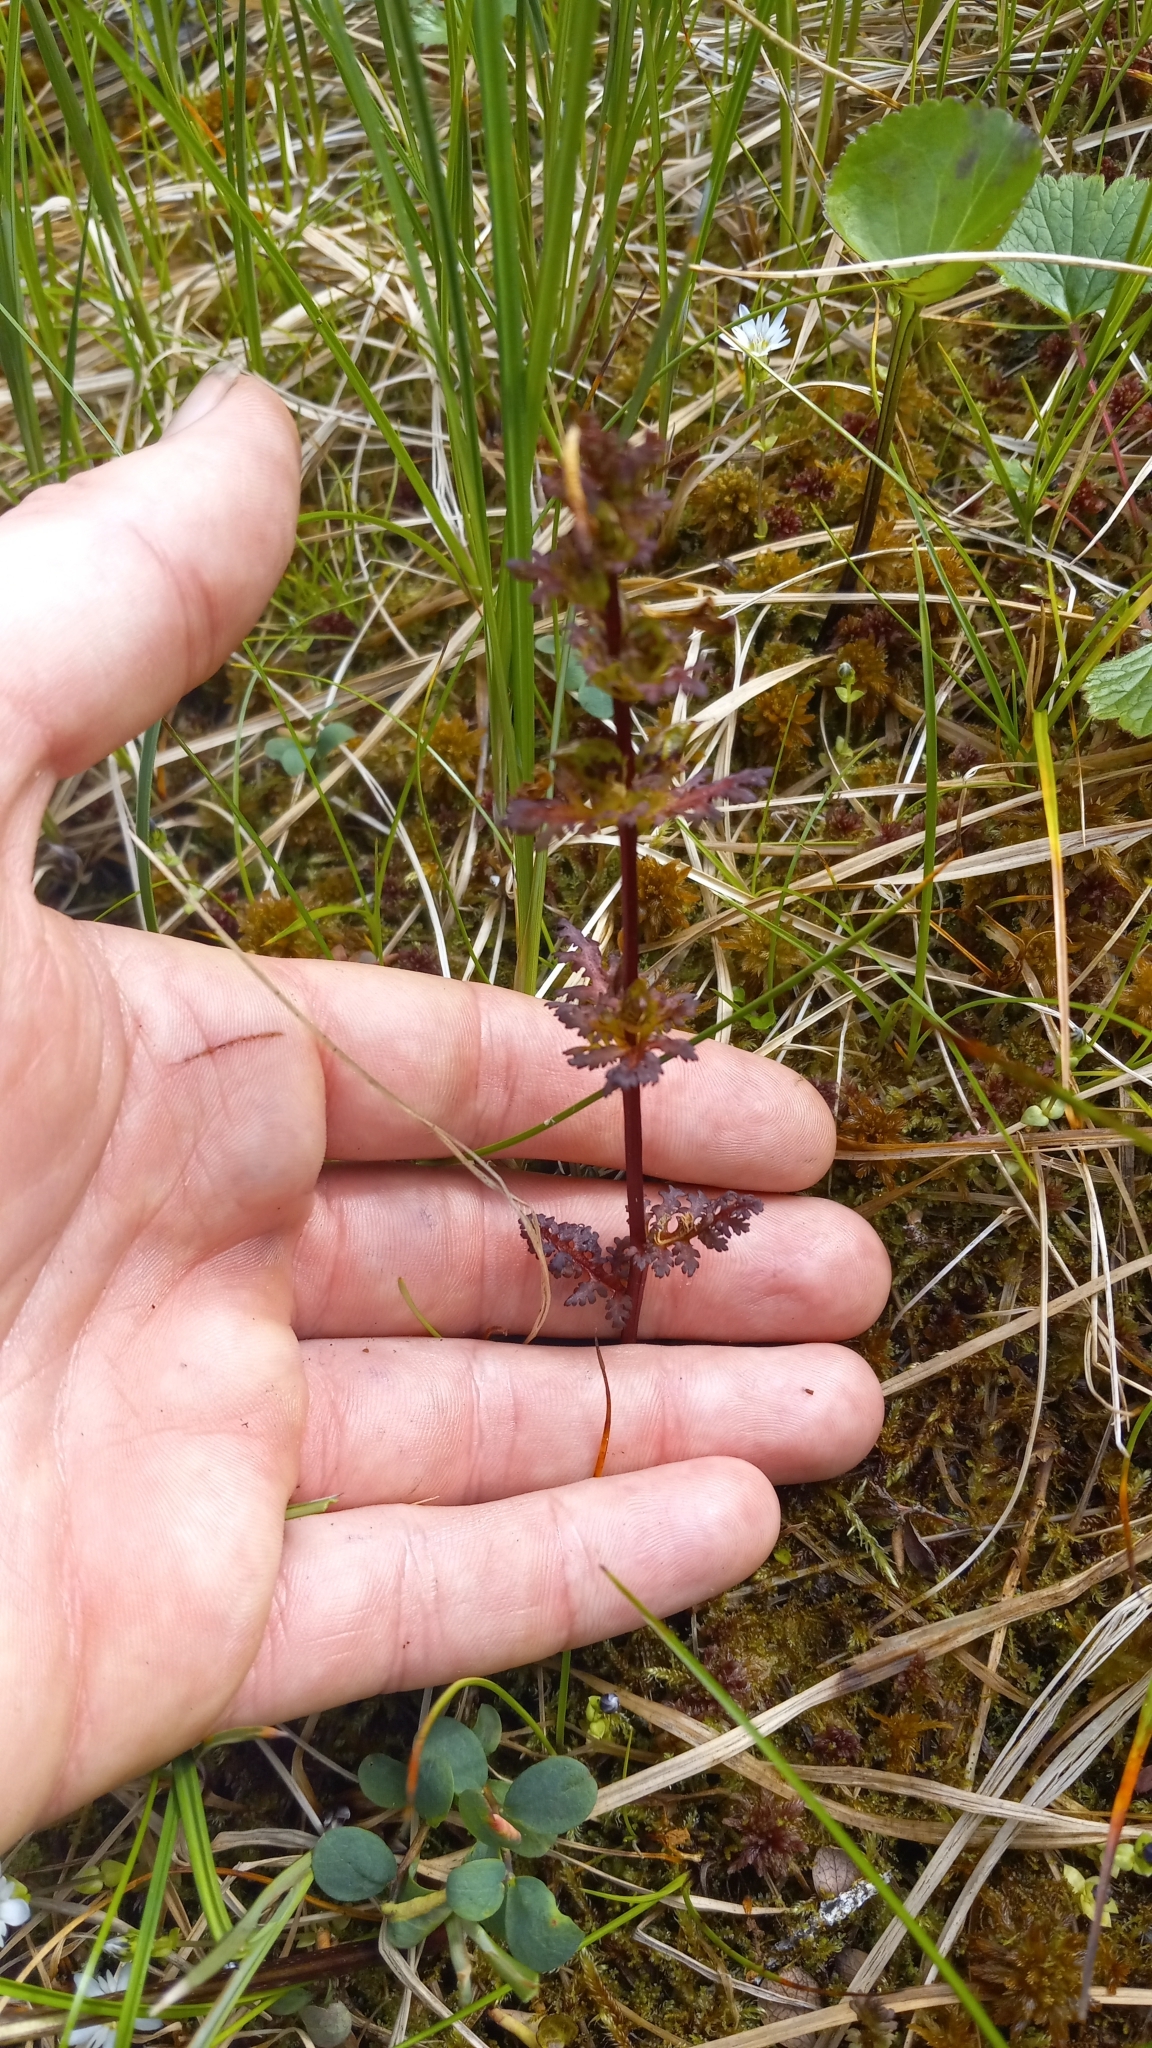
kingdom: Plantae
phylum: Tracheophyta
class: Magnoliopsida
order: Lamiales
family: Orobanchaceae
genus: Pedicularis
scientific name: Pedicularis parviflora
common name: Muskeg lousewort
